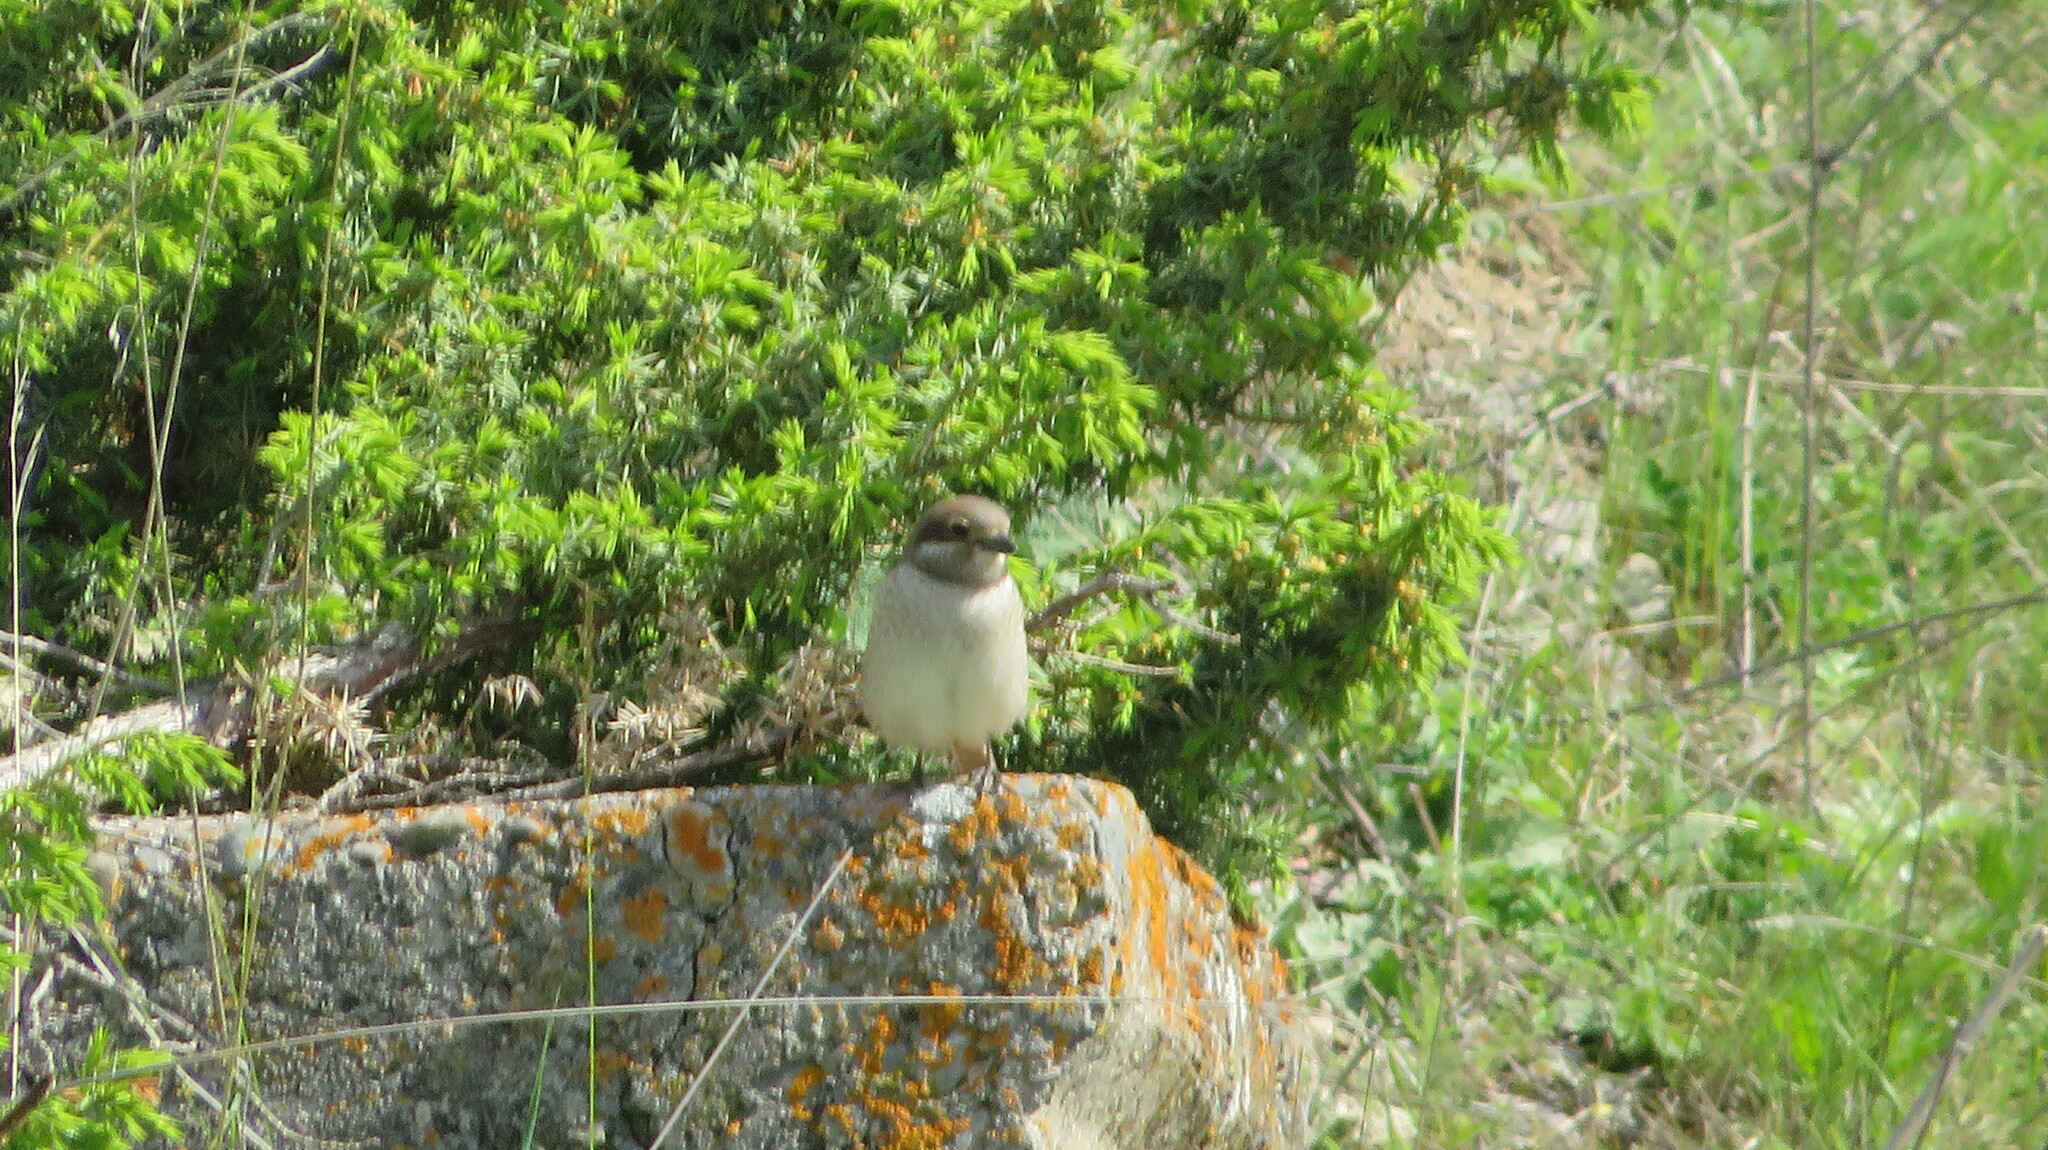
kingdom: Animalia
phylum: Chordata
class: Aves
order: Passeriformes
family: Laniidae
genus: Lanius
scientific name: Lanius collurio
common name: Red-backed shrike
